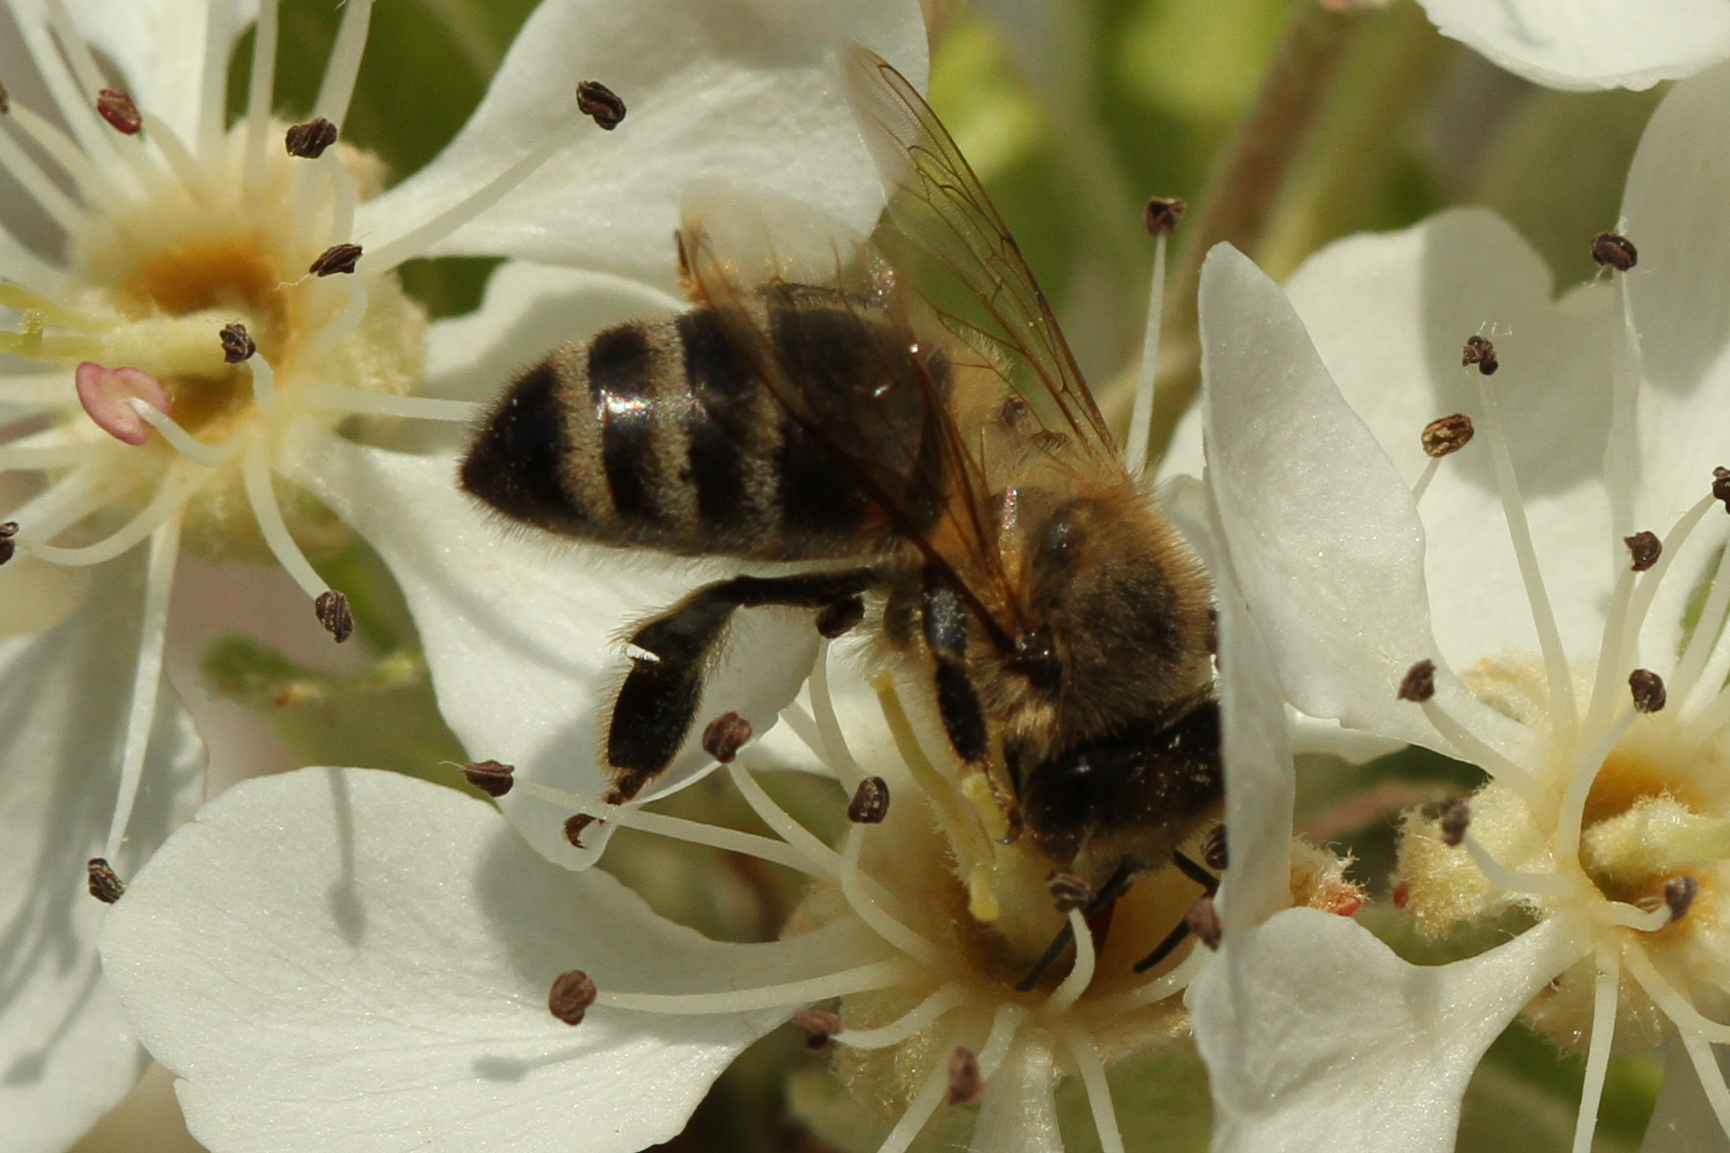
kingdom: Animalia
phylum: Arthropoda
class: Insecta
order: Hymenoptera
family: Apidae
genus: Apis
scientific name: Apis mellifera
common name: Honey bee
